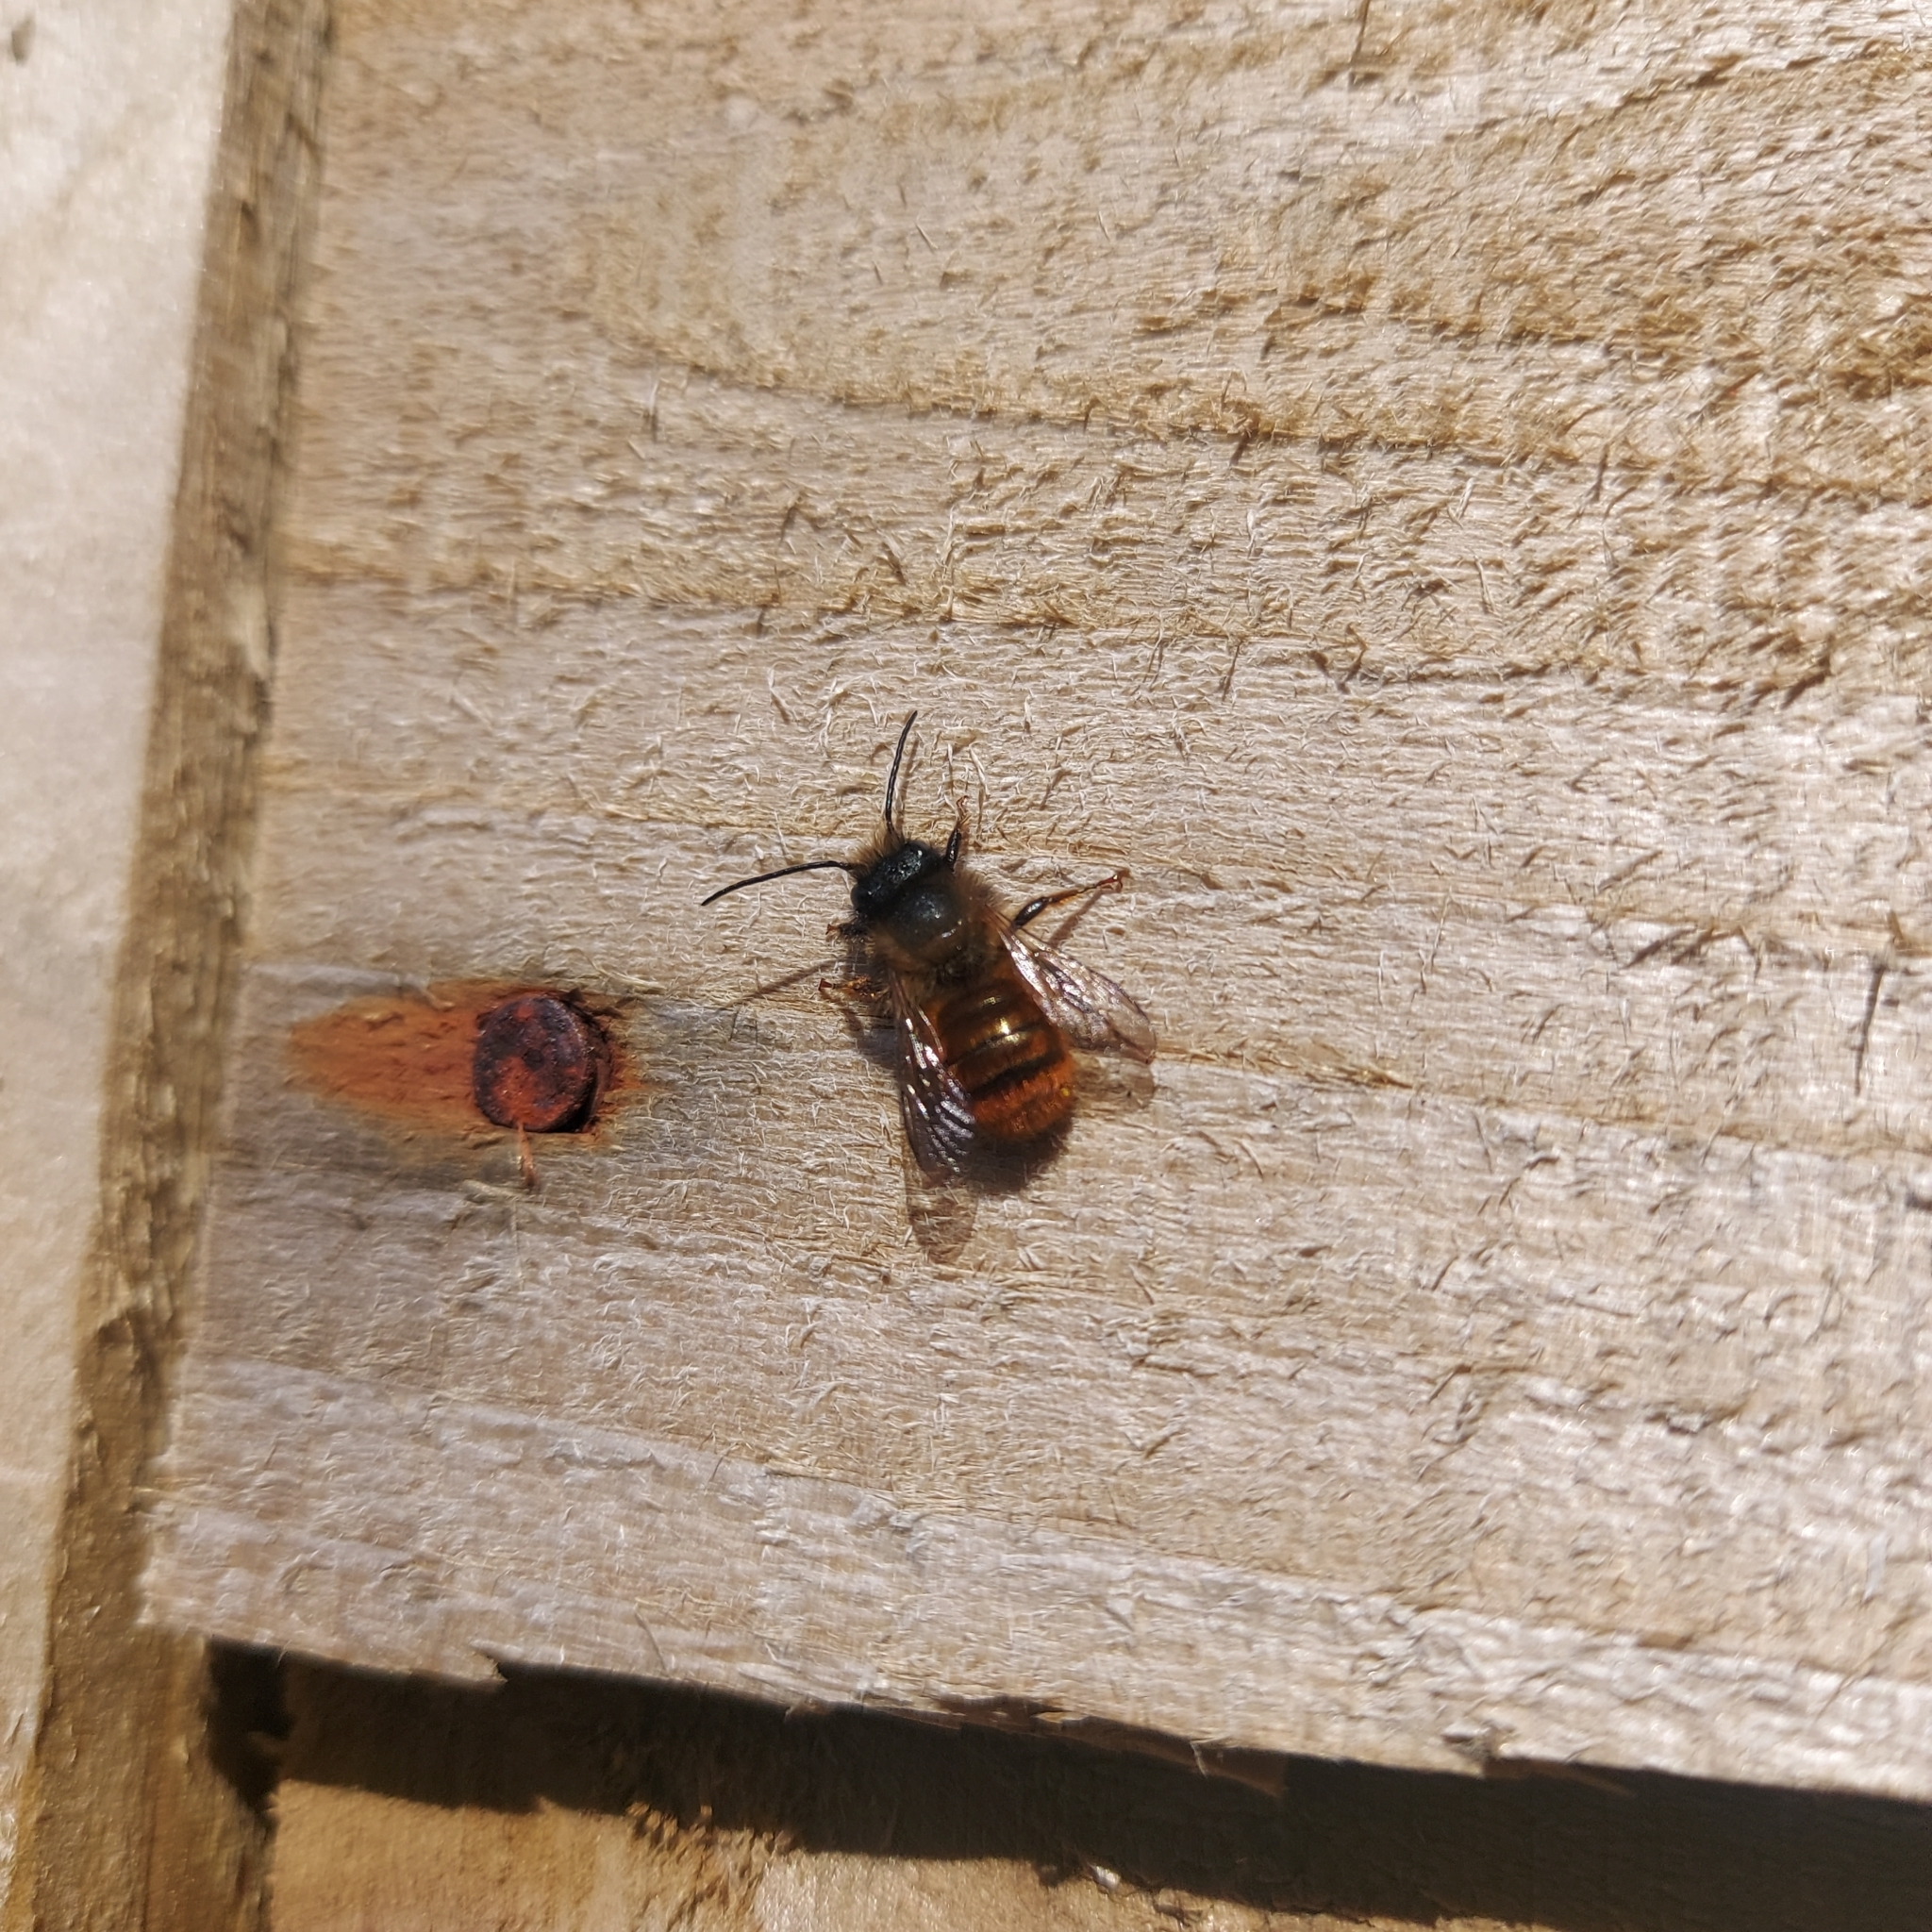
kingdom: Animalia
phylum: Arthropoda
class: Insecta
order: Hymenoptera
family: Megachilidae
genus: Osmia
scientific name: Osmia bicornis
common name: Red mason bee
